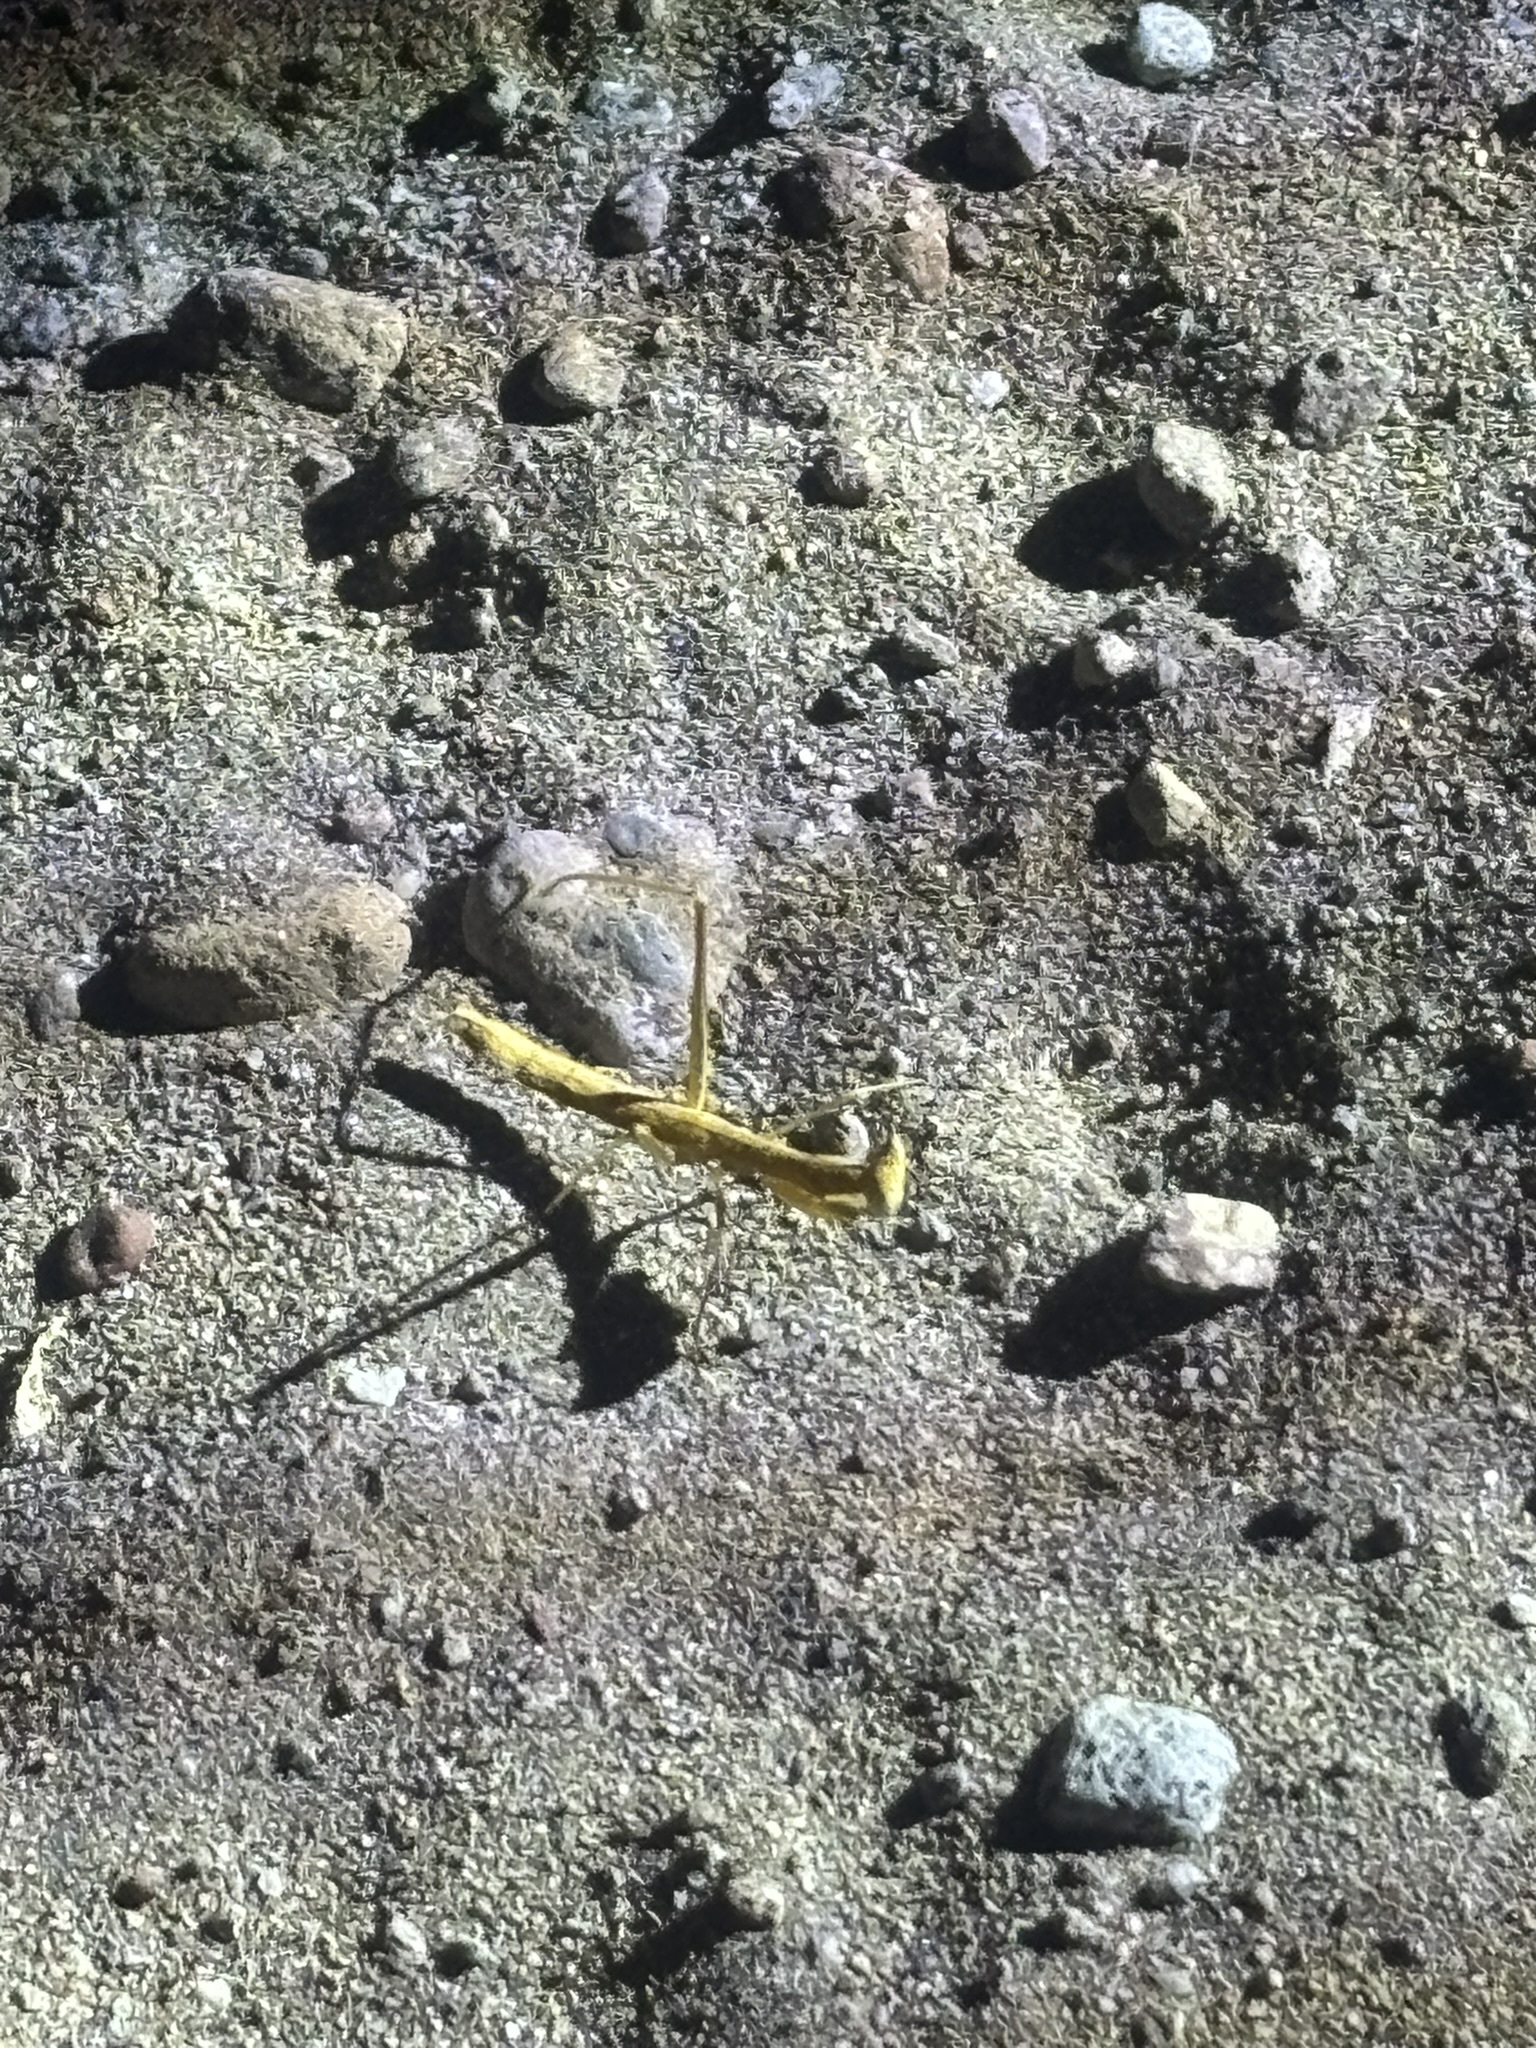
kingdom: Animalia
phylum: Arthropoda
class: Insecta
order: Mantodea
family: Amelidae
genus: Yersiniops
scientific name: Yersiniops newboldi
